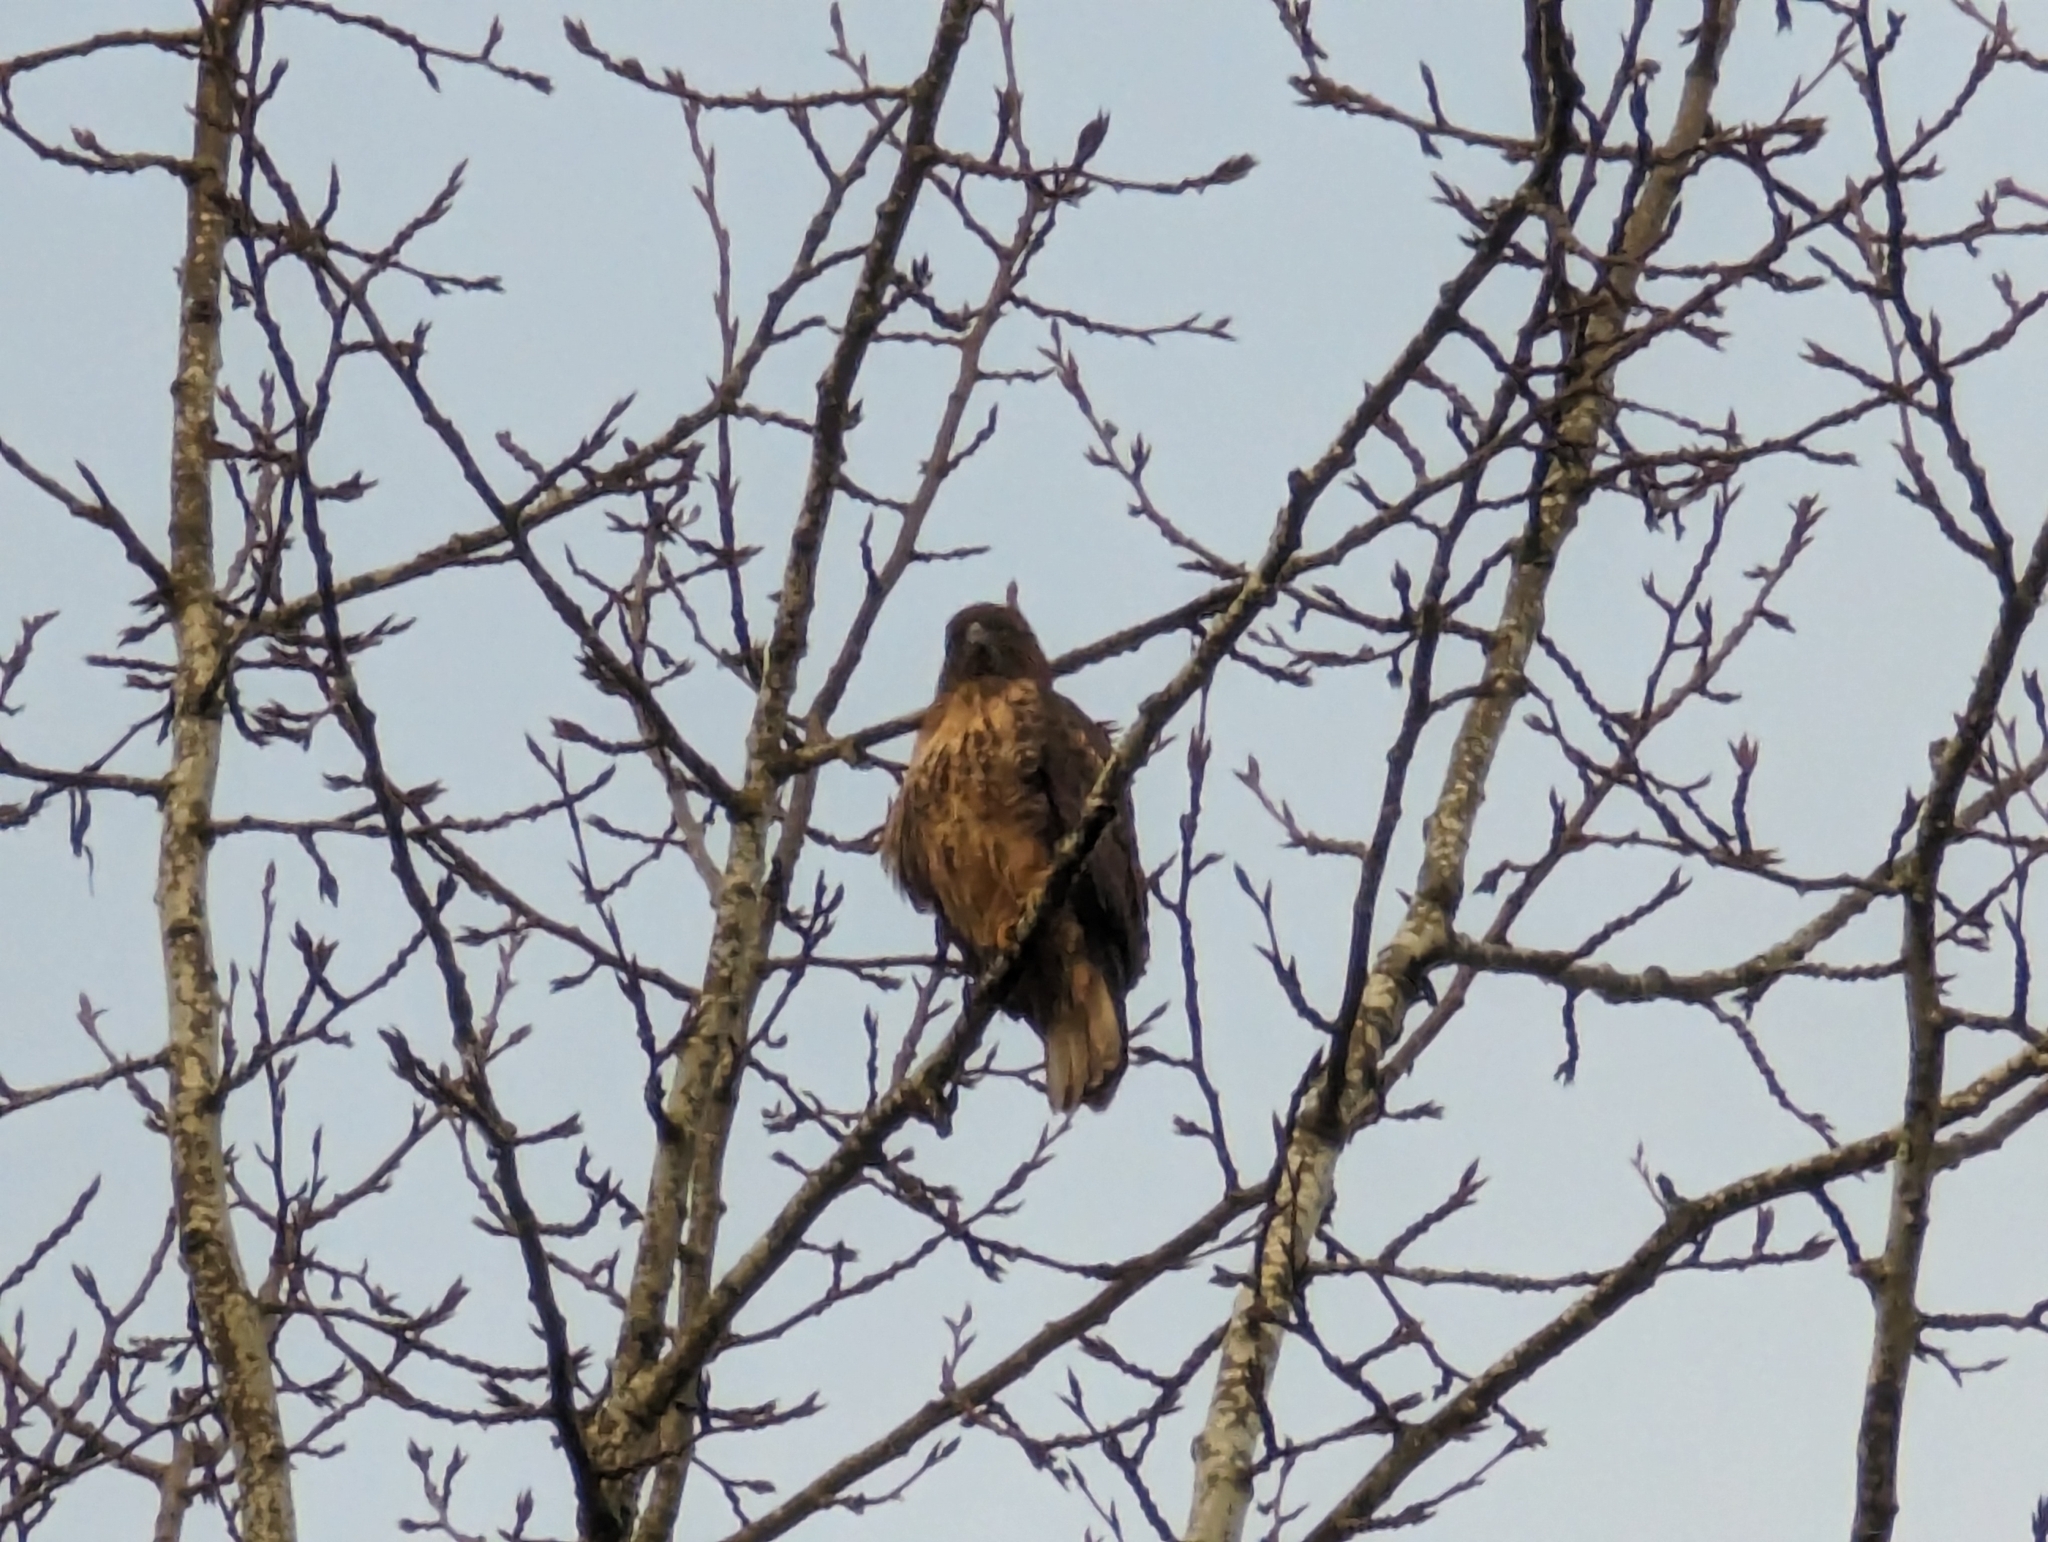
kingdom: Animalia
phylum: Chordata
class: Aves
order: Accipitriformes
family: Accipitridae
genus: Buteo
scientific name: Buteo jamaicensis
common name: Red-tailed hawk
